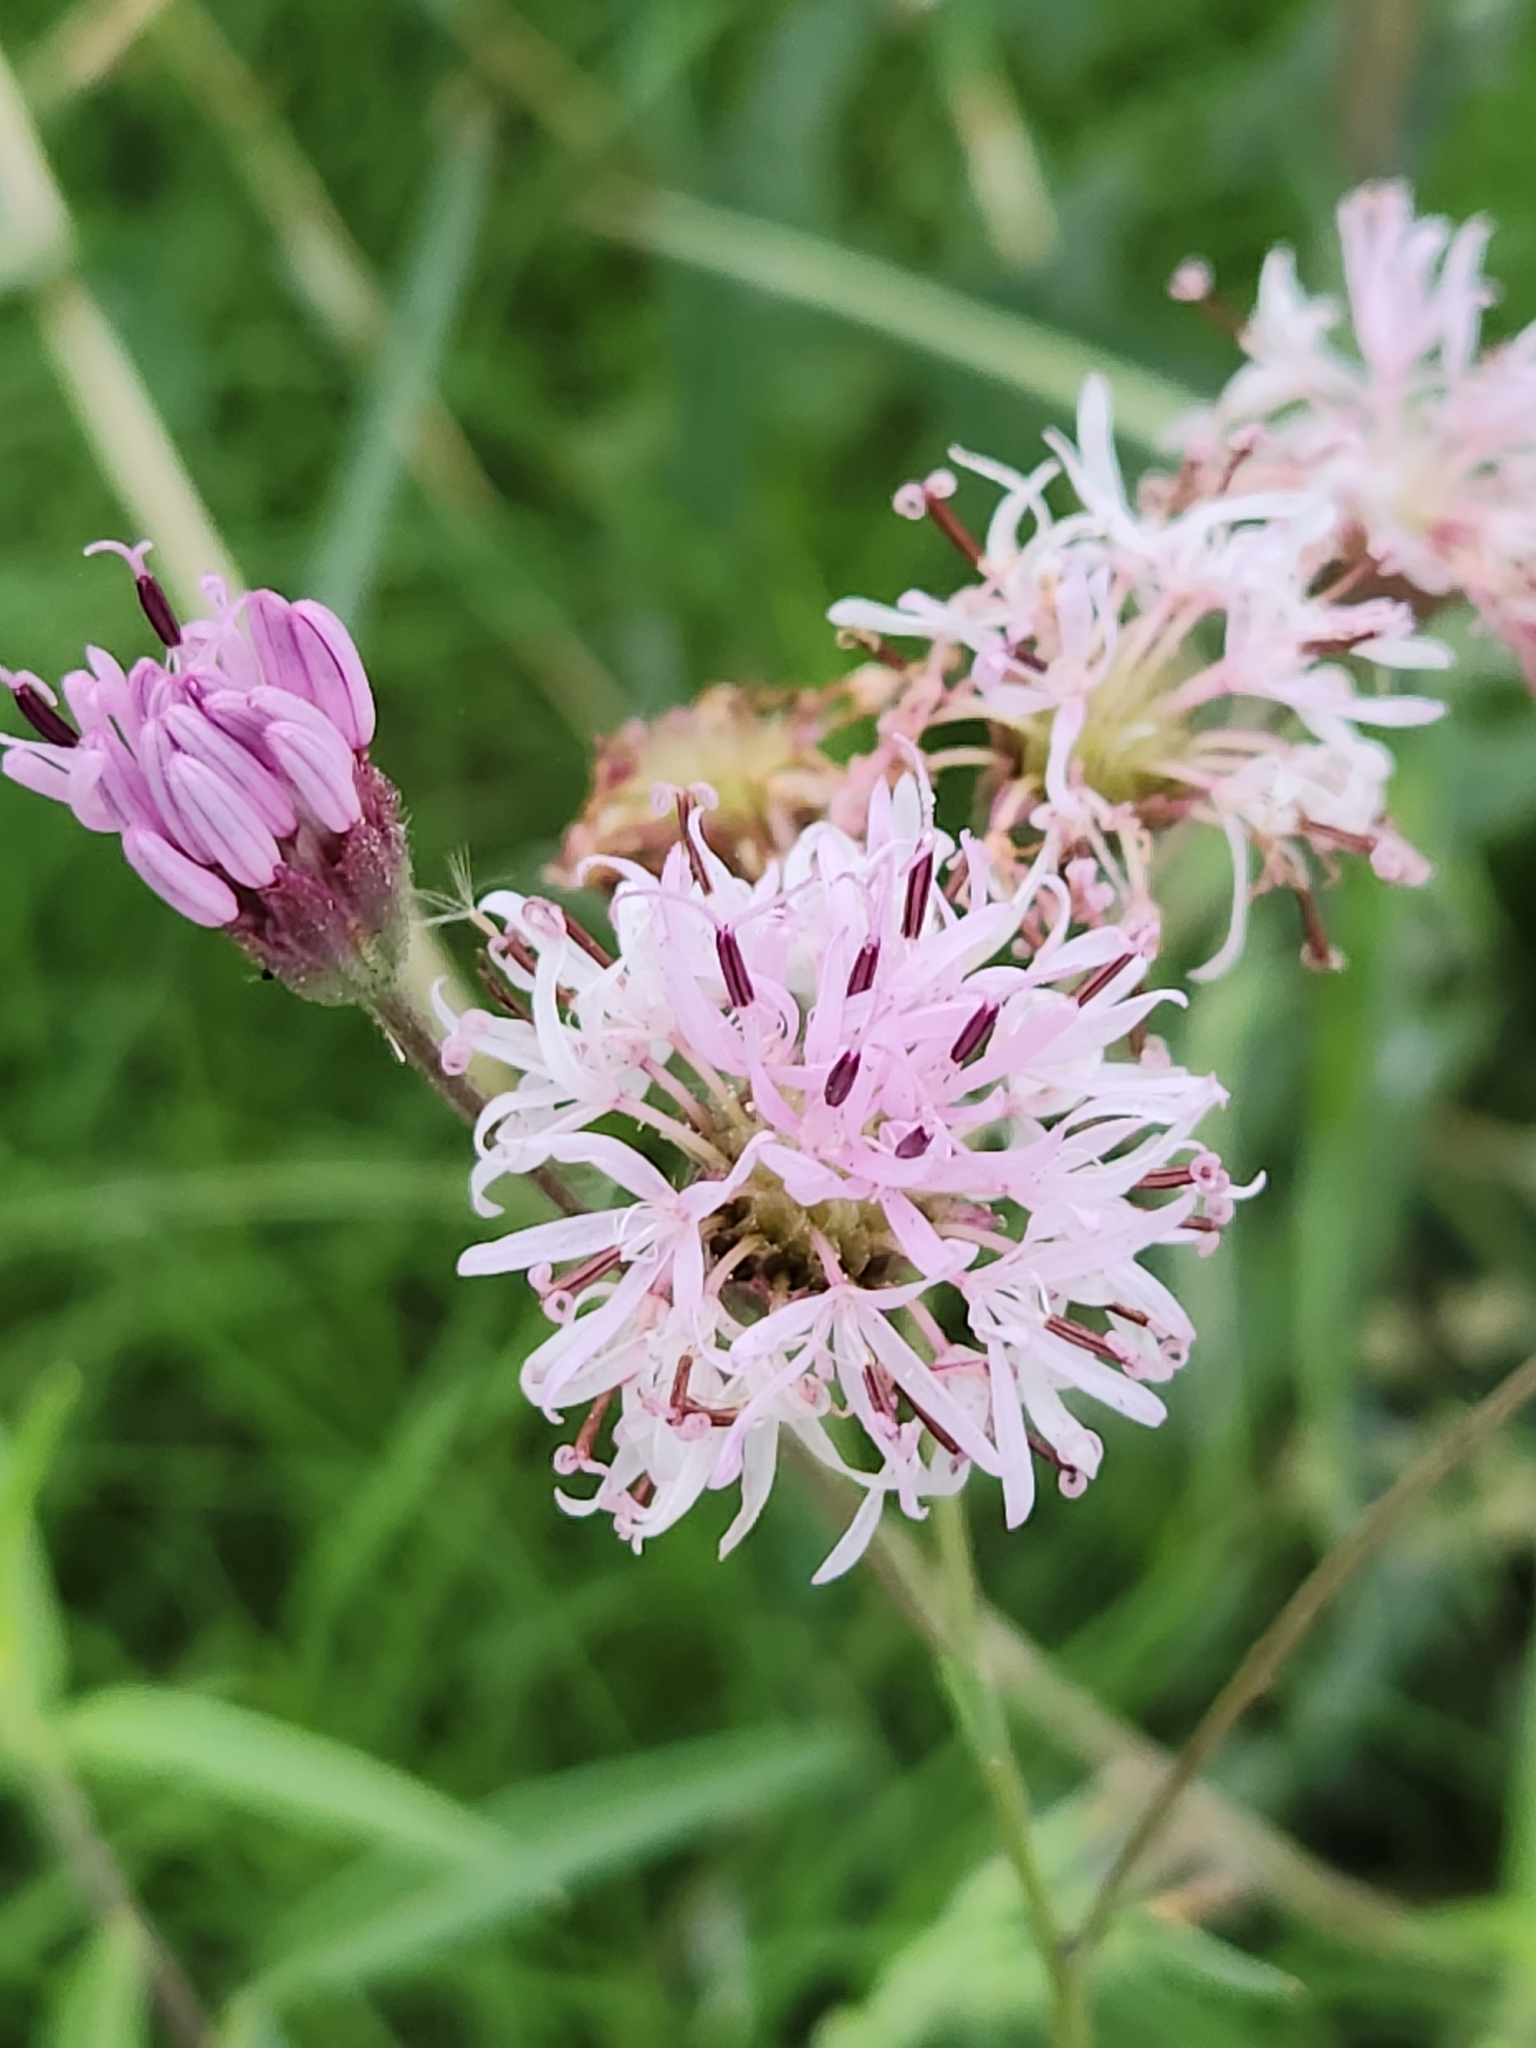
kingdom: Plantae
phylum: Tracheophyta
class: Magnoliopsida
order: Asterales
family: Asteraceae
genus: Palafoxia
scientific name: Palafoxia callosa
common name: Small palafox
